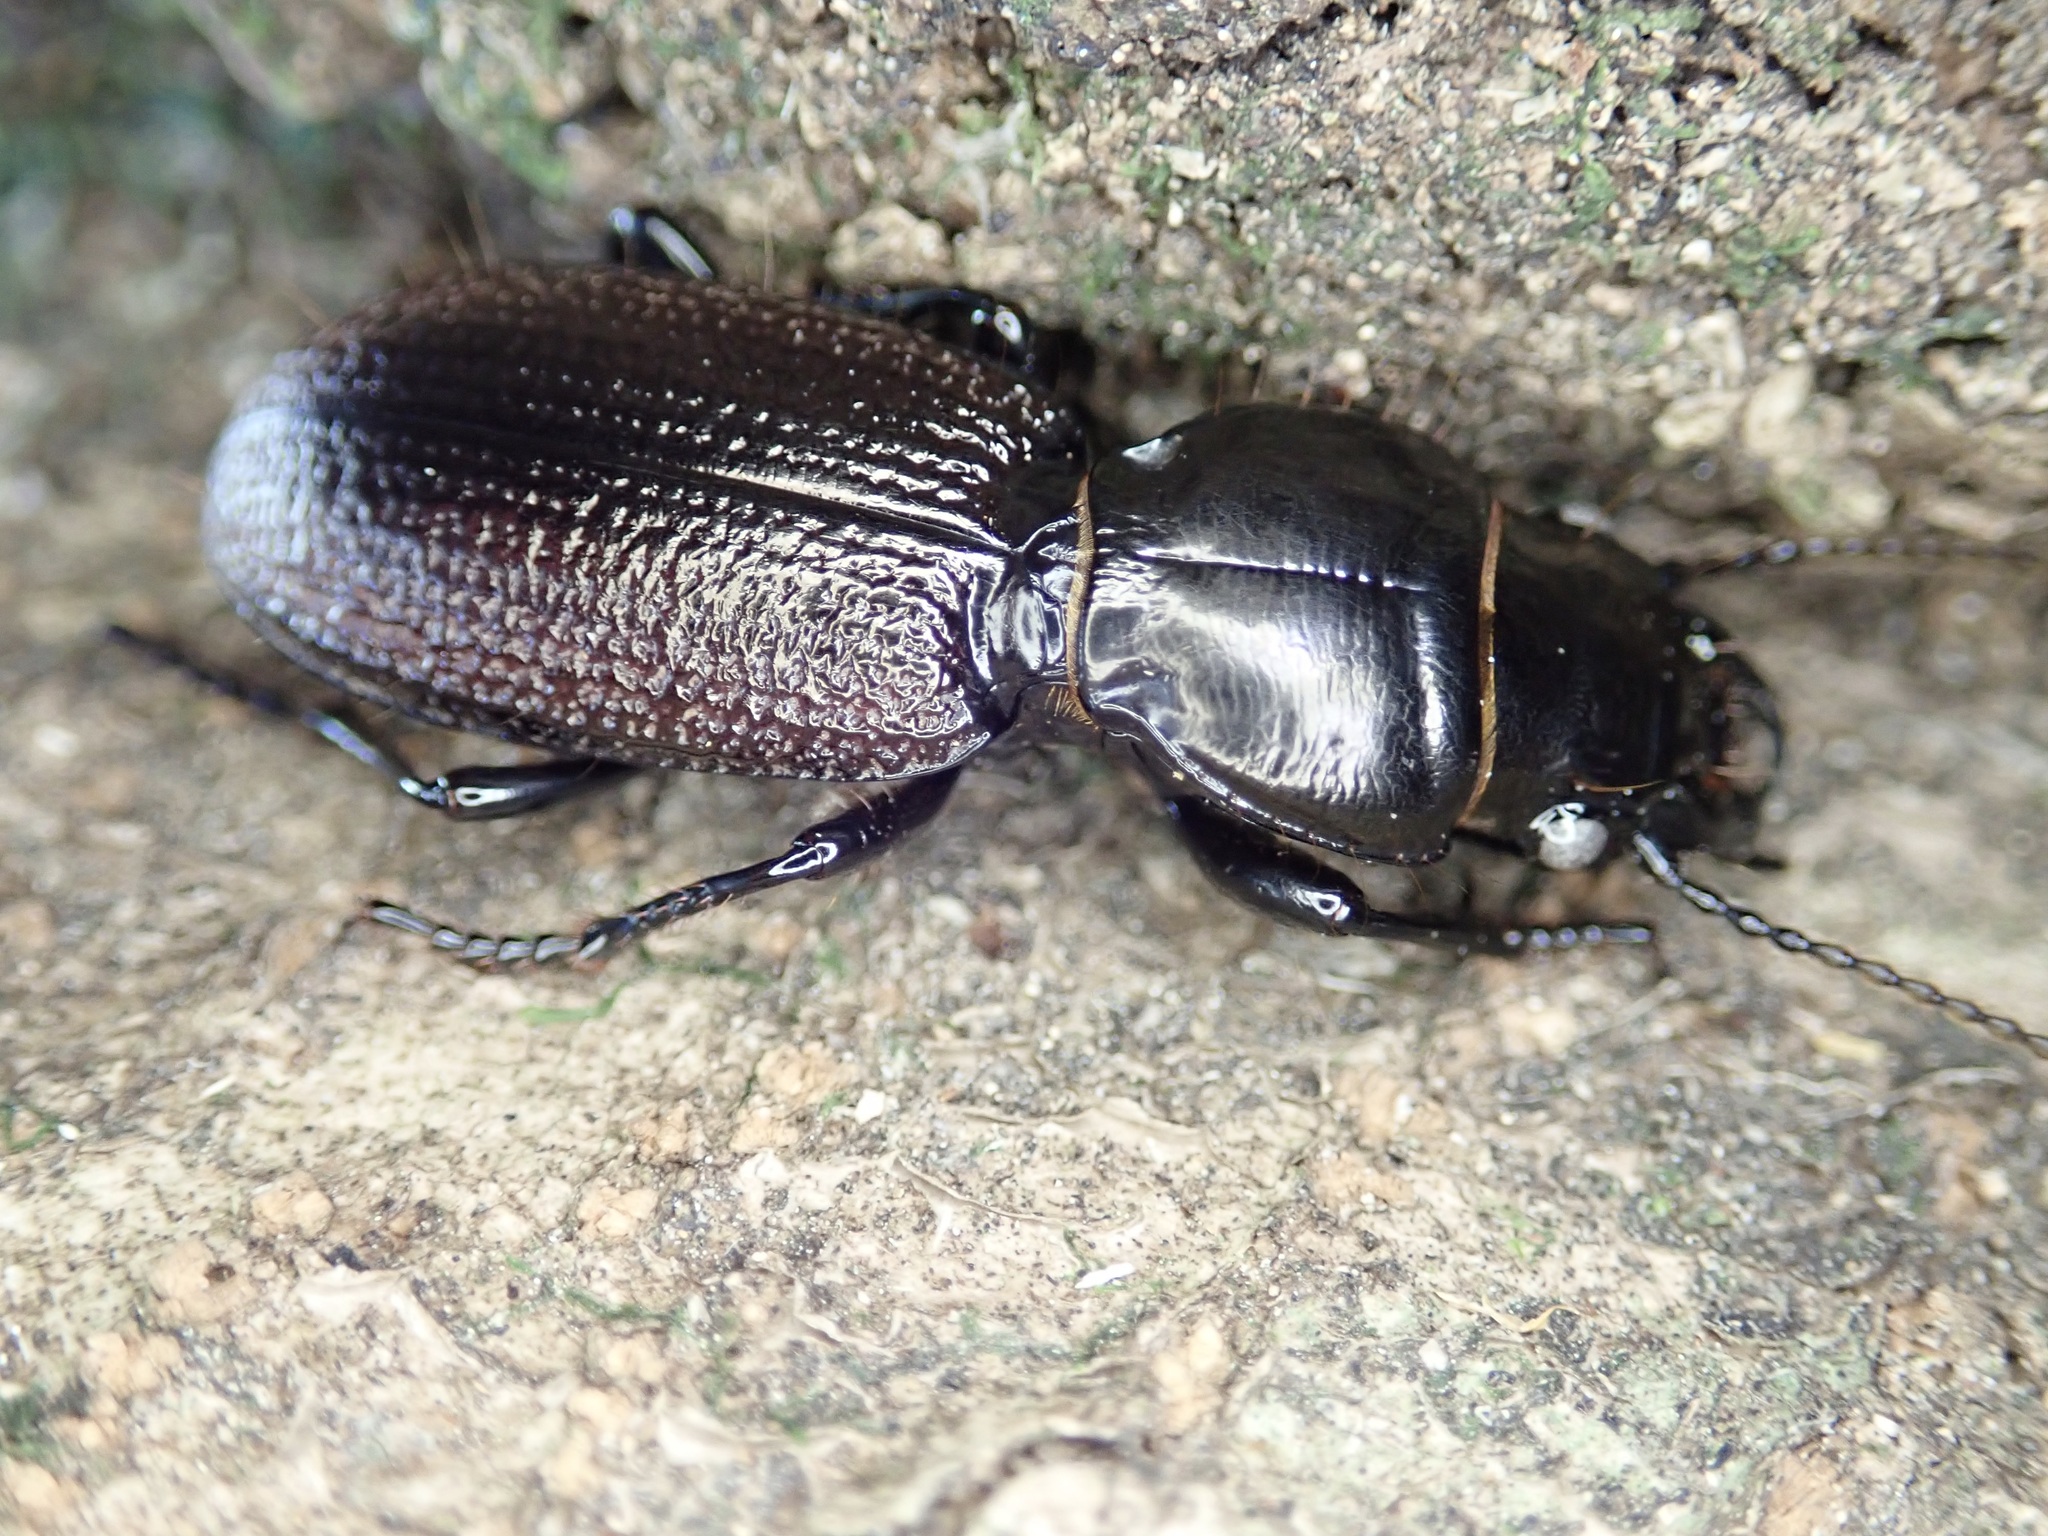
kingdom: Animalia
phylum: Arthropoda
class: Insecta
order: Coleoptera
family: Carabidae
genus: Mecodema
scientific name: Mecodema howittii
